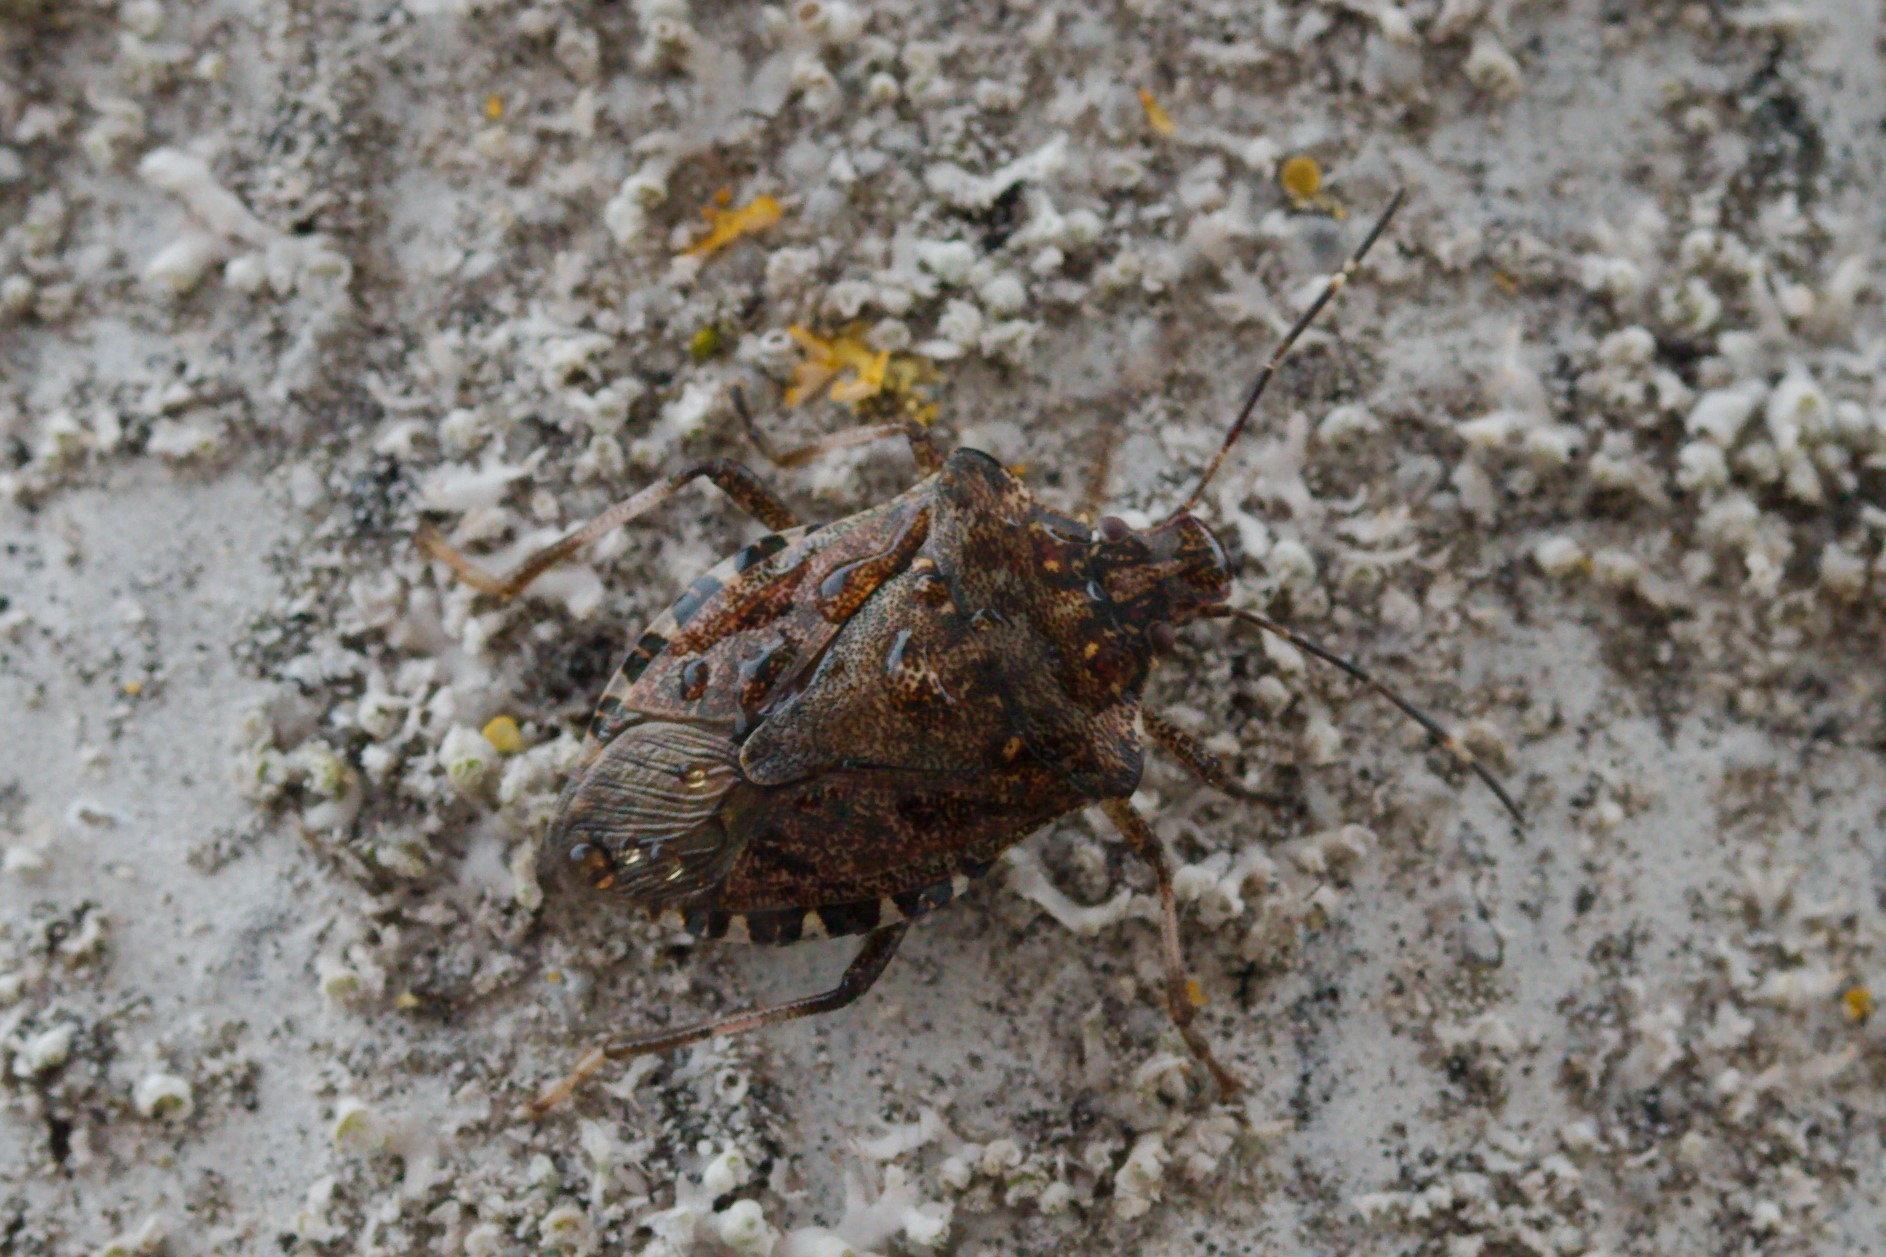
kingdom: Animalia
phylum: Arthropoda
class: Insecta
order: Hemiptera
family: Pentatomidae
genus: Halyomorpha
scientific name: Halyomorpha halys
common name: Brown marmorated stink bug
